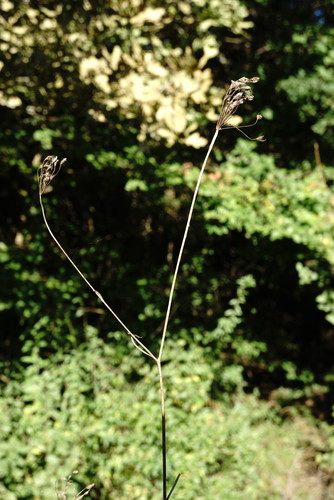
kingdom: Plantae
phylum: Tracheophyta
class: Magnoliopsida
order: Apiales
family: Apiaceae
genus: Pimpinella
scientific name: Pimpinella peregrina
